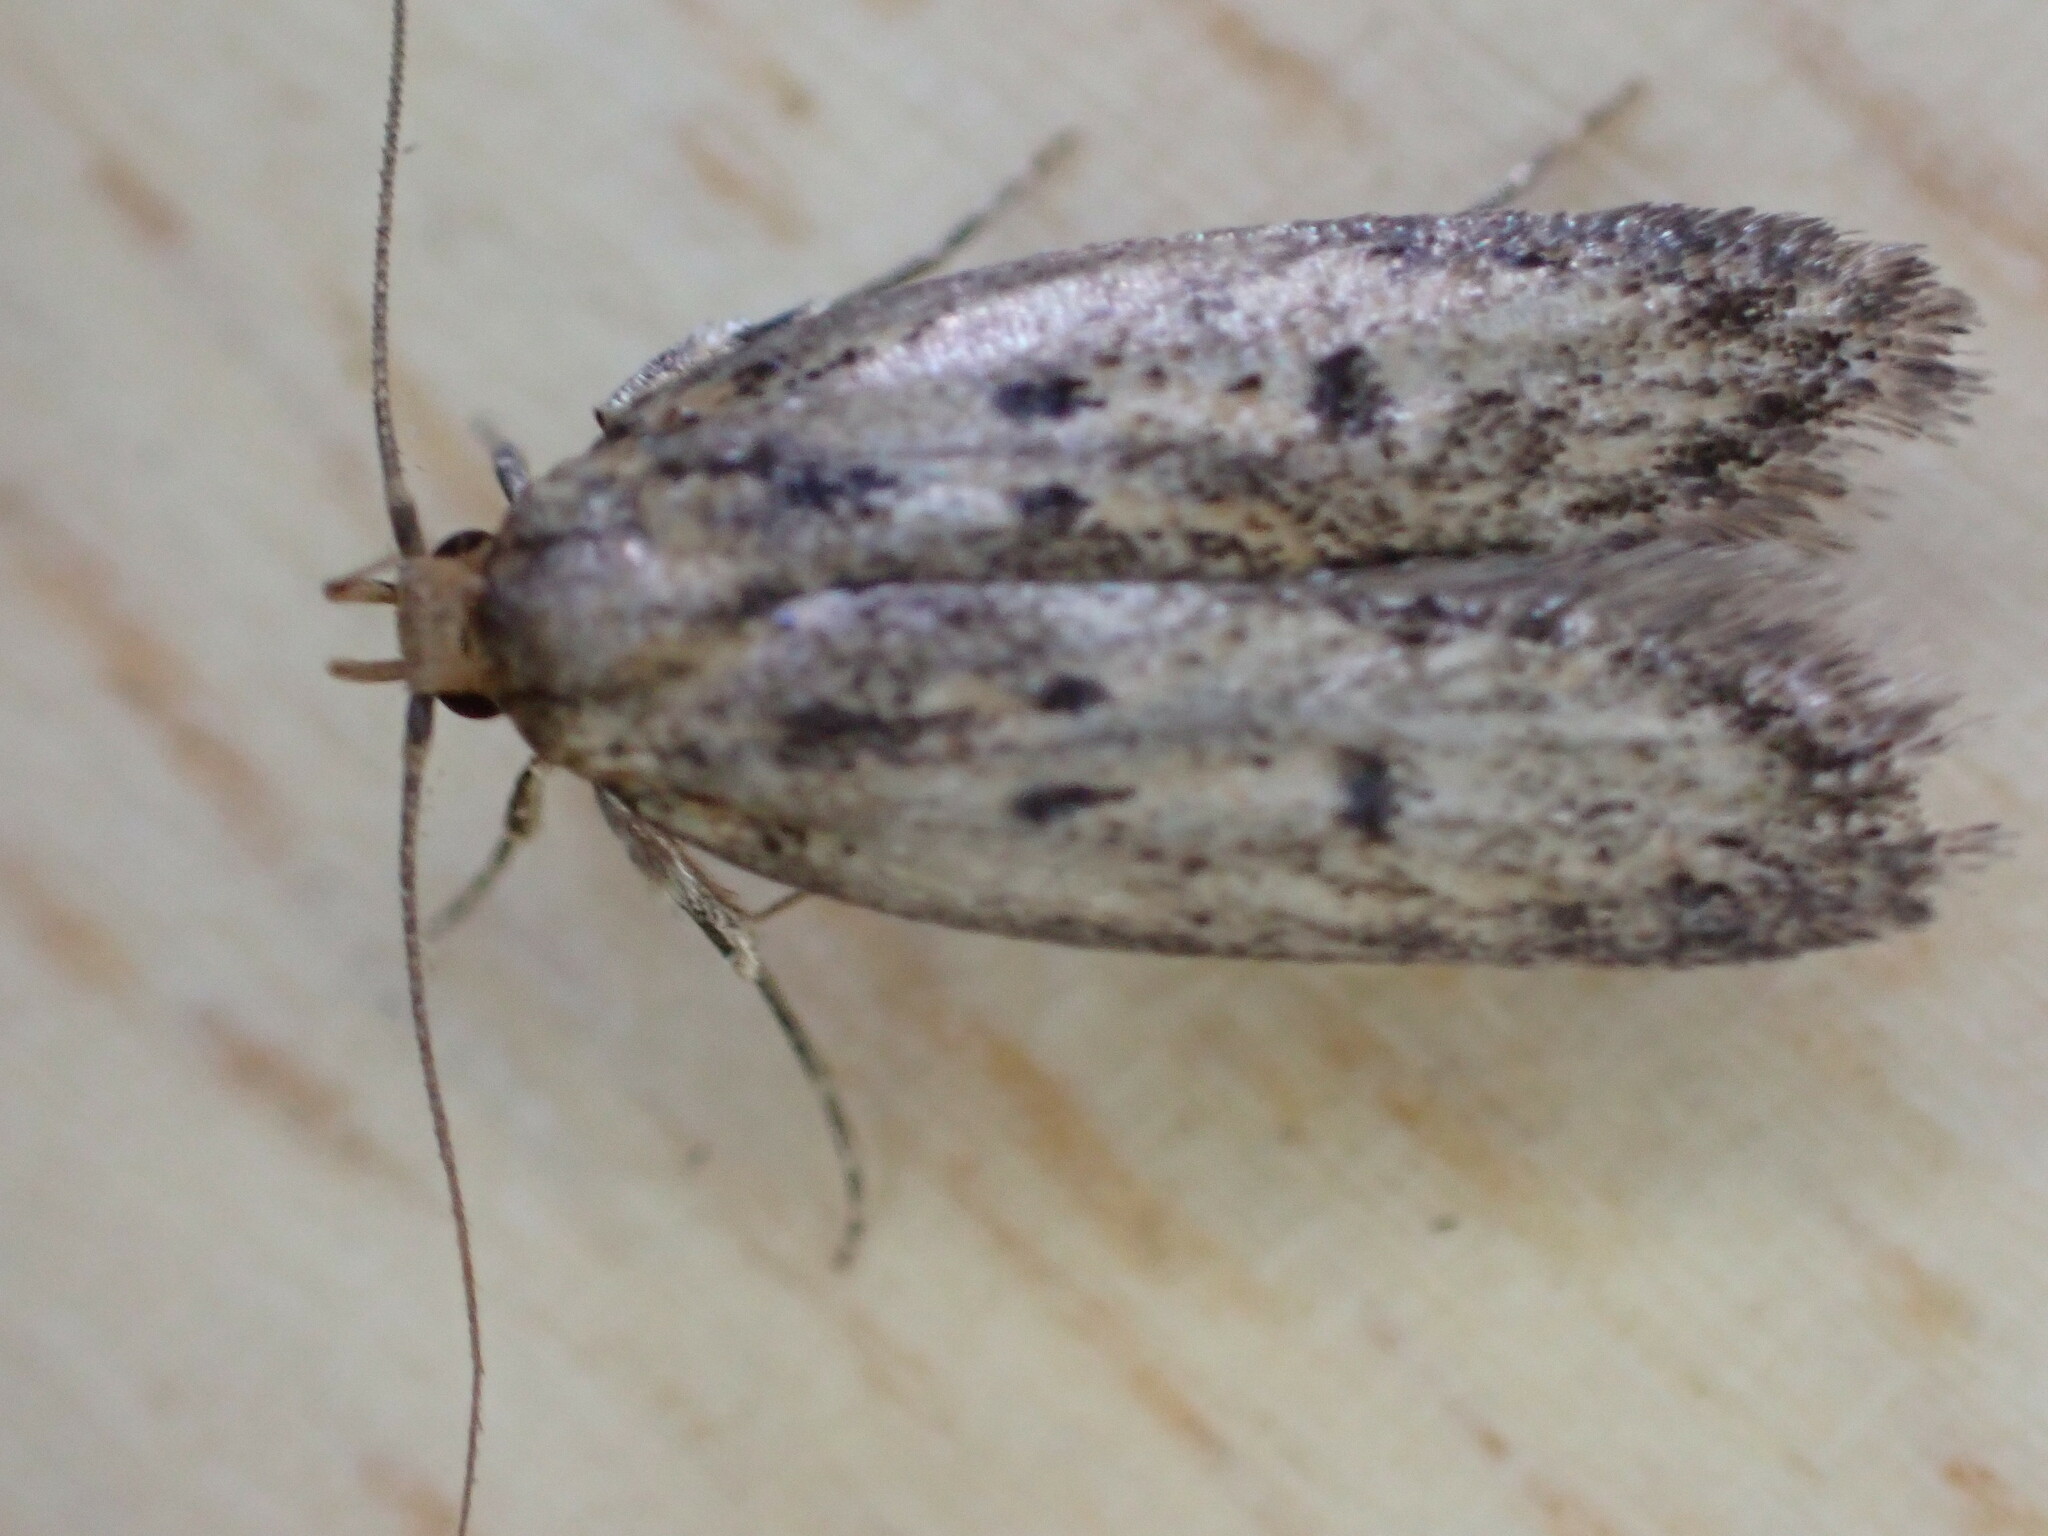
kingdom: Animalia
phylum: Arthropoda
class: Insecta
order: Lepidoptera
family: Oecophoridae
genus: Hofmannophila
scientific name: Hofmannophila pseudospretella
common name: Brown house moth
